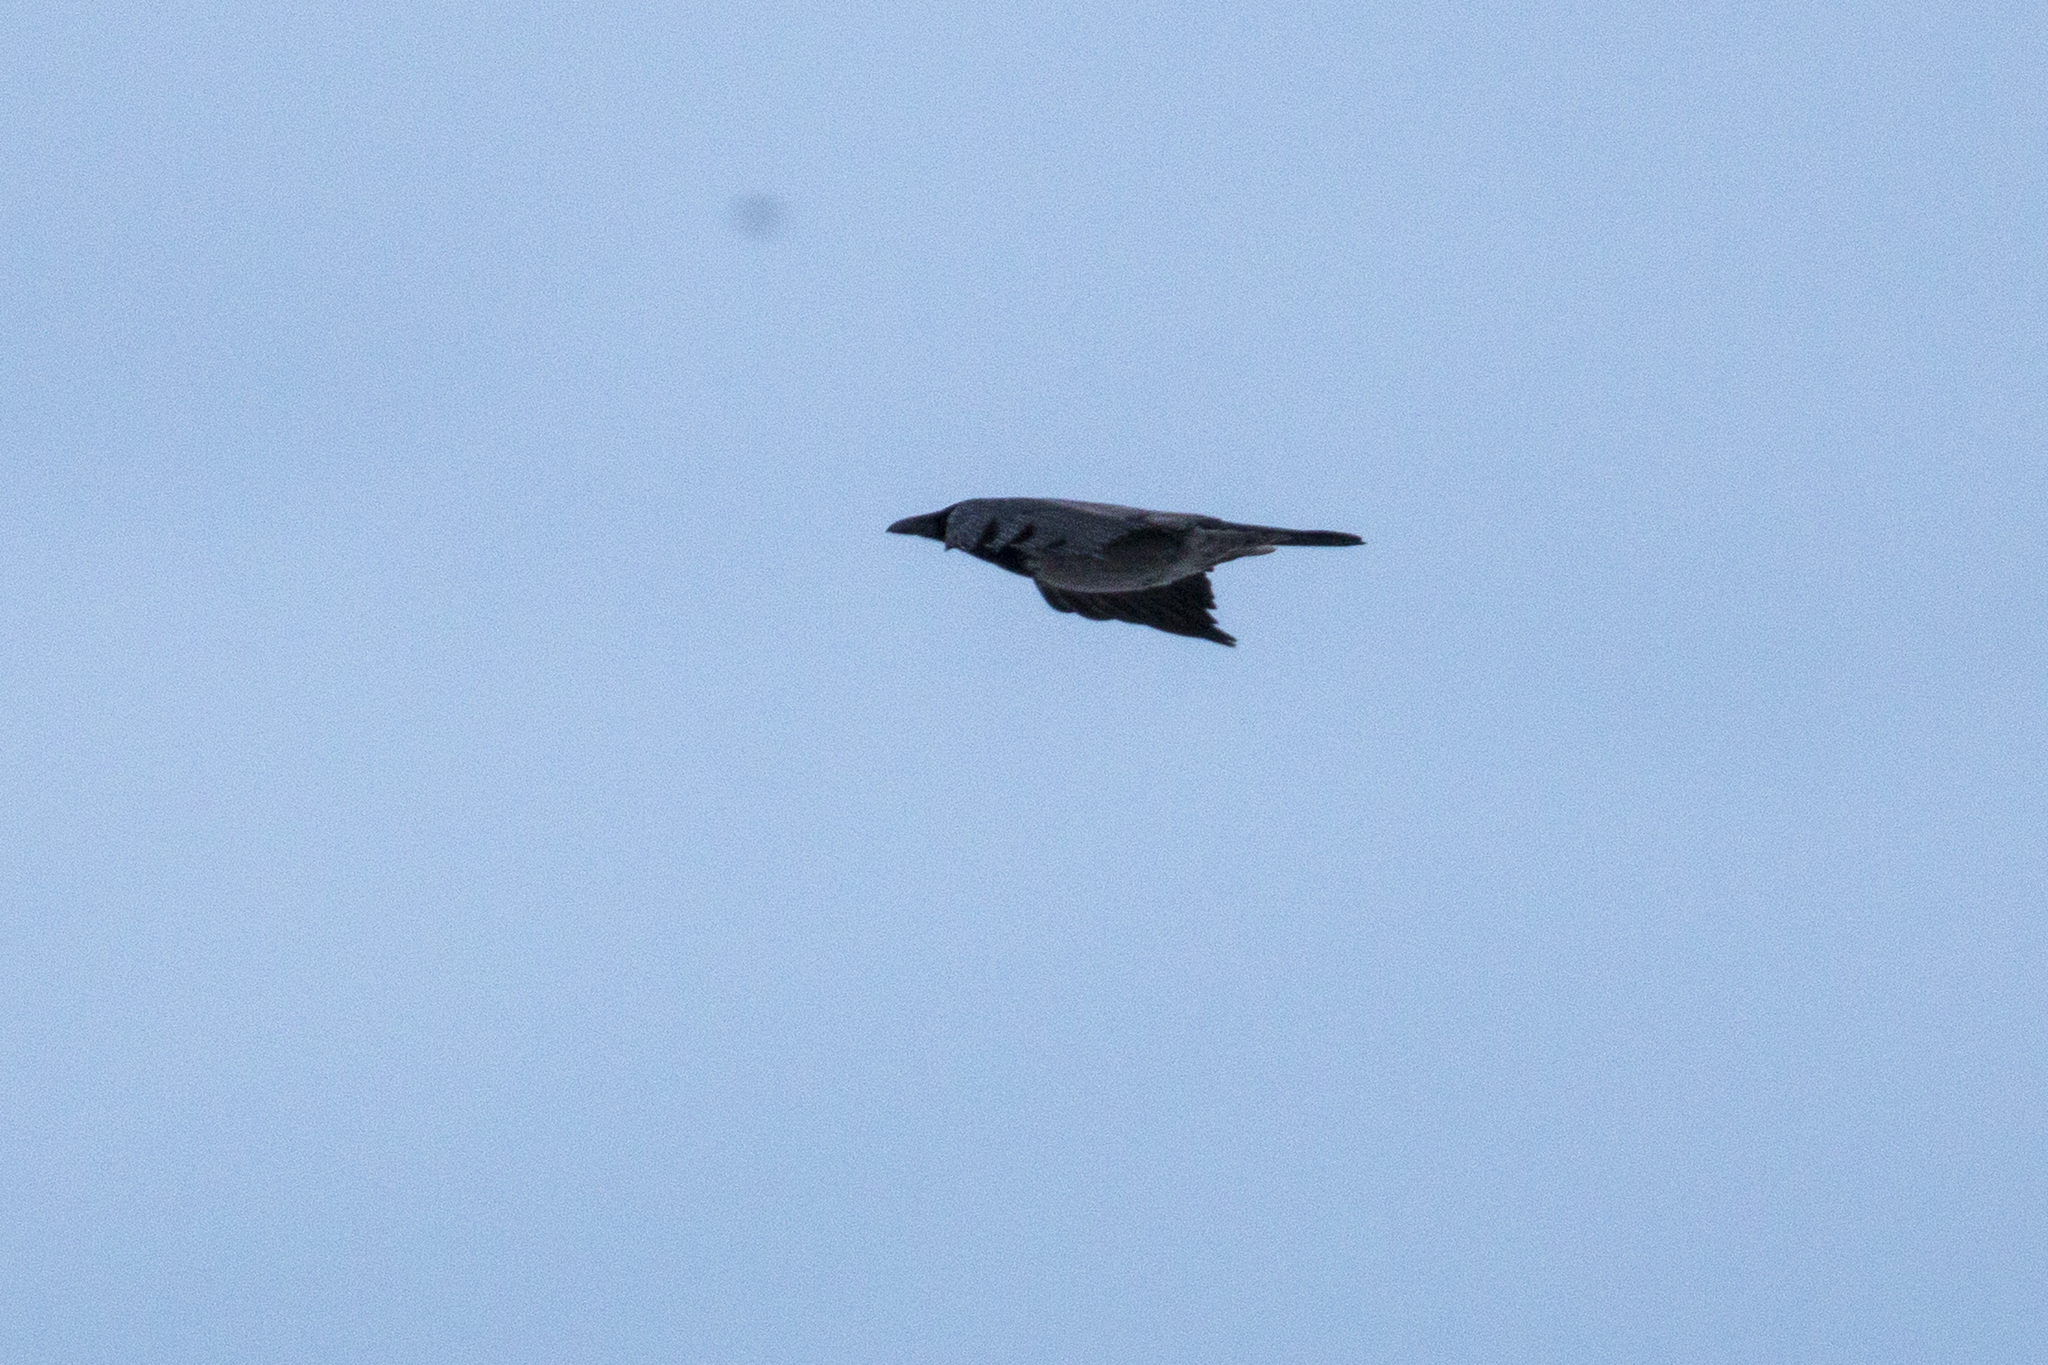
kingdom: Animalia
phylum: Chordata
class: Aves
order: Passeriformes
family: Corvidae
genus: Corvus
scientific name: Corvus corax
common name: Common raven
